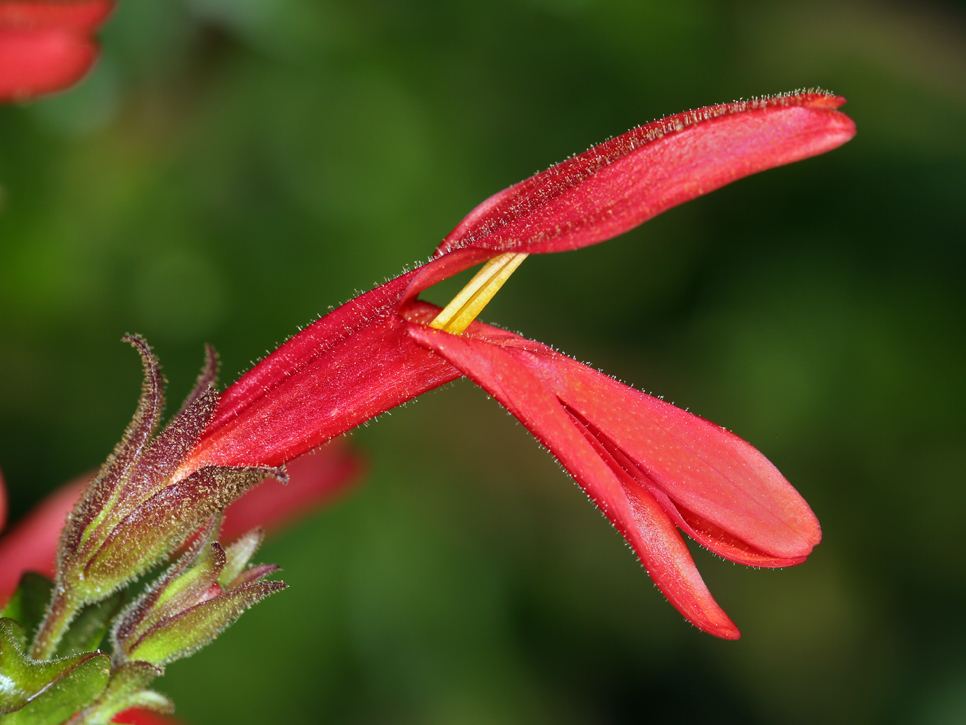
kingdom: Plantae
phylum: Tracheophyta
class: Magnoliopsida
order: Lamiales
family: Plantaginaceae
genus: Keckiella
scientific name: Keckiella cordifolia
